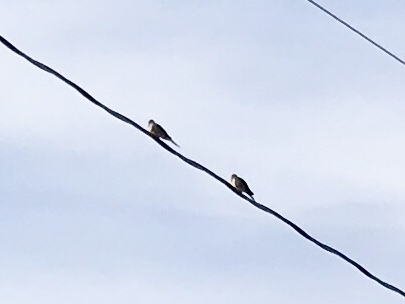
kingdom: Animalia
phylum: Chordata
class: Aves
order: Columbiformes
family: Columbidae
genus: Zenaida
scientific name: Zenaida macroura
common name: Mourning dove
